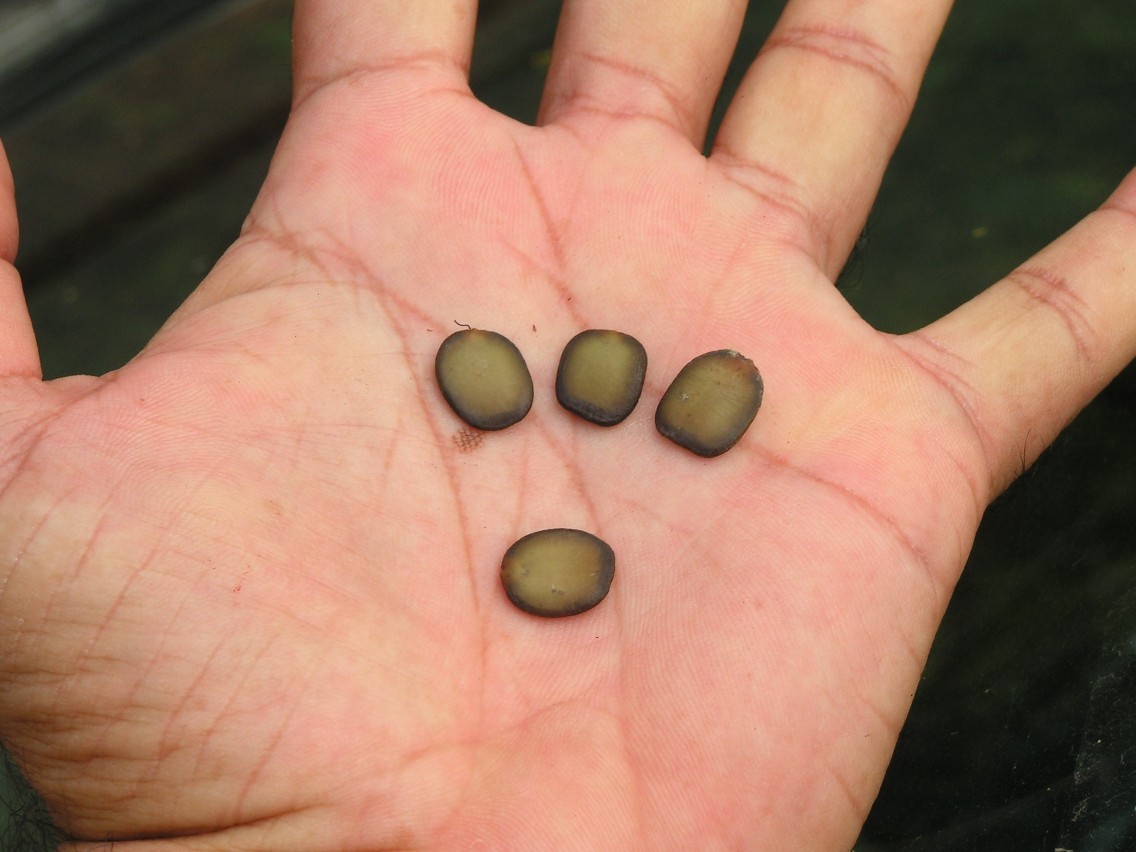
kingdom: Plantae
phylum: Tracheophyta
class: Magnoliopsida
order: Fabales
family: Fabaceae
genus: Coulteria
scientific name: Coulteria platyloba
